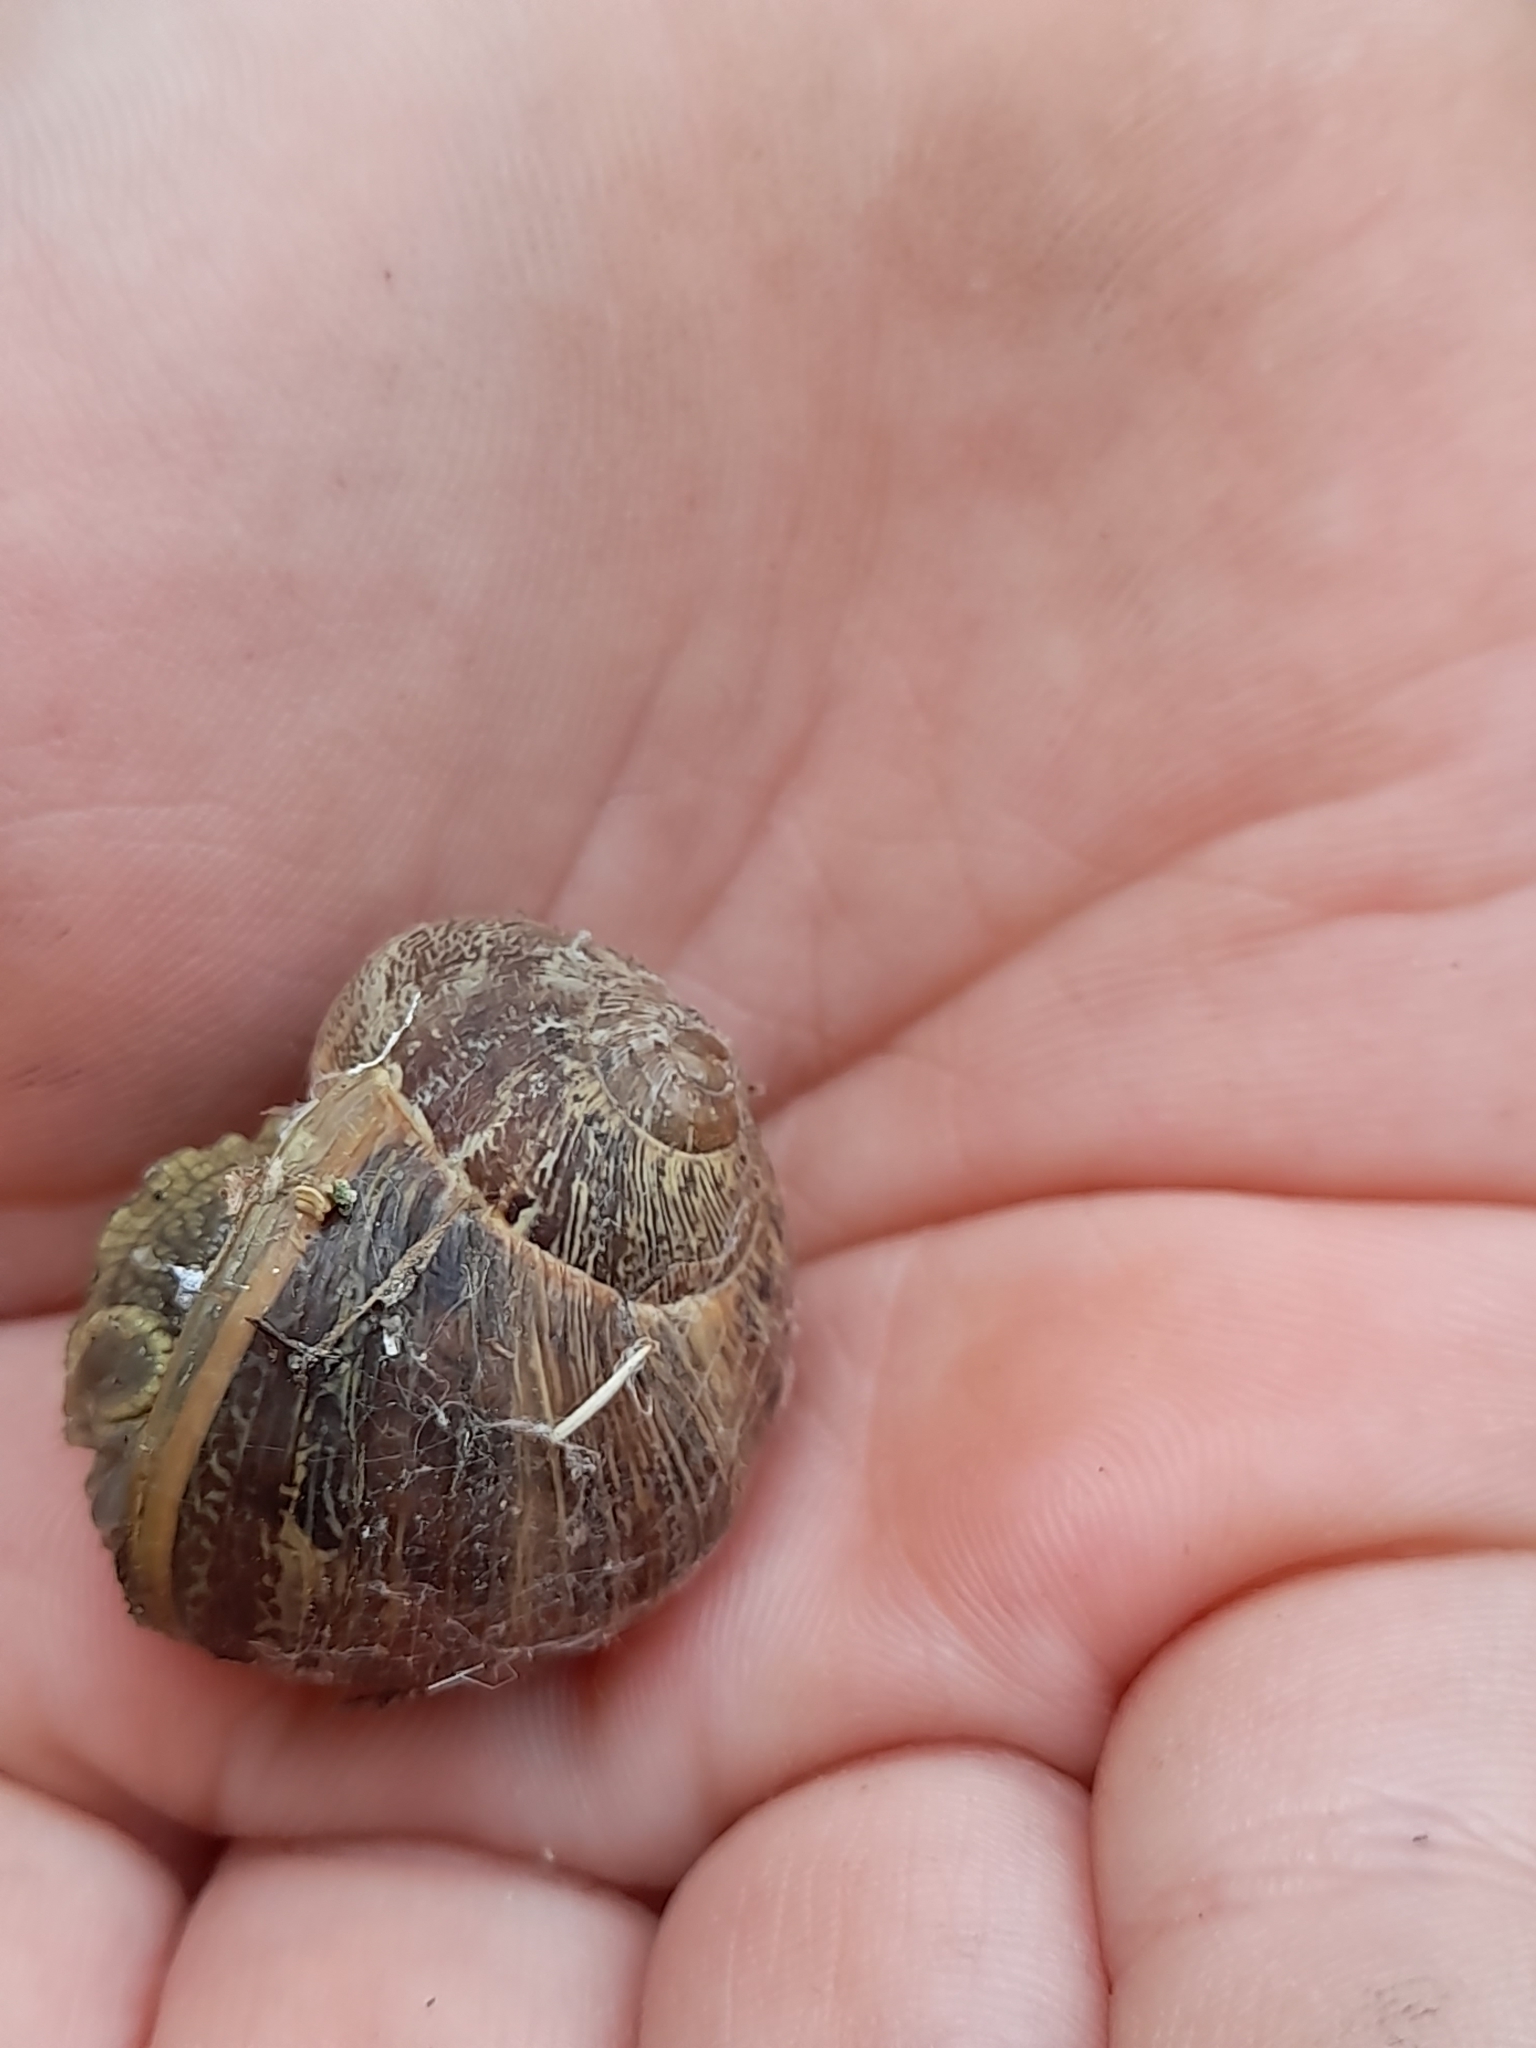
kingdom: Animalia
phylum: Mollusca
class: Gastropoda
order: Stylommatophora
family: Helicidae
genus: Cornu
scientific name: Cornu aspersum
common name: Brown garden snail
